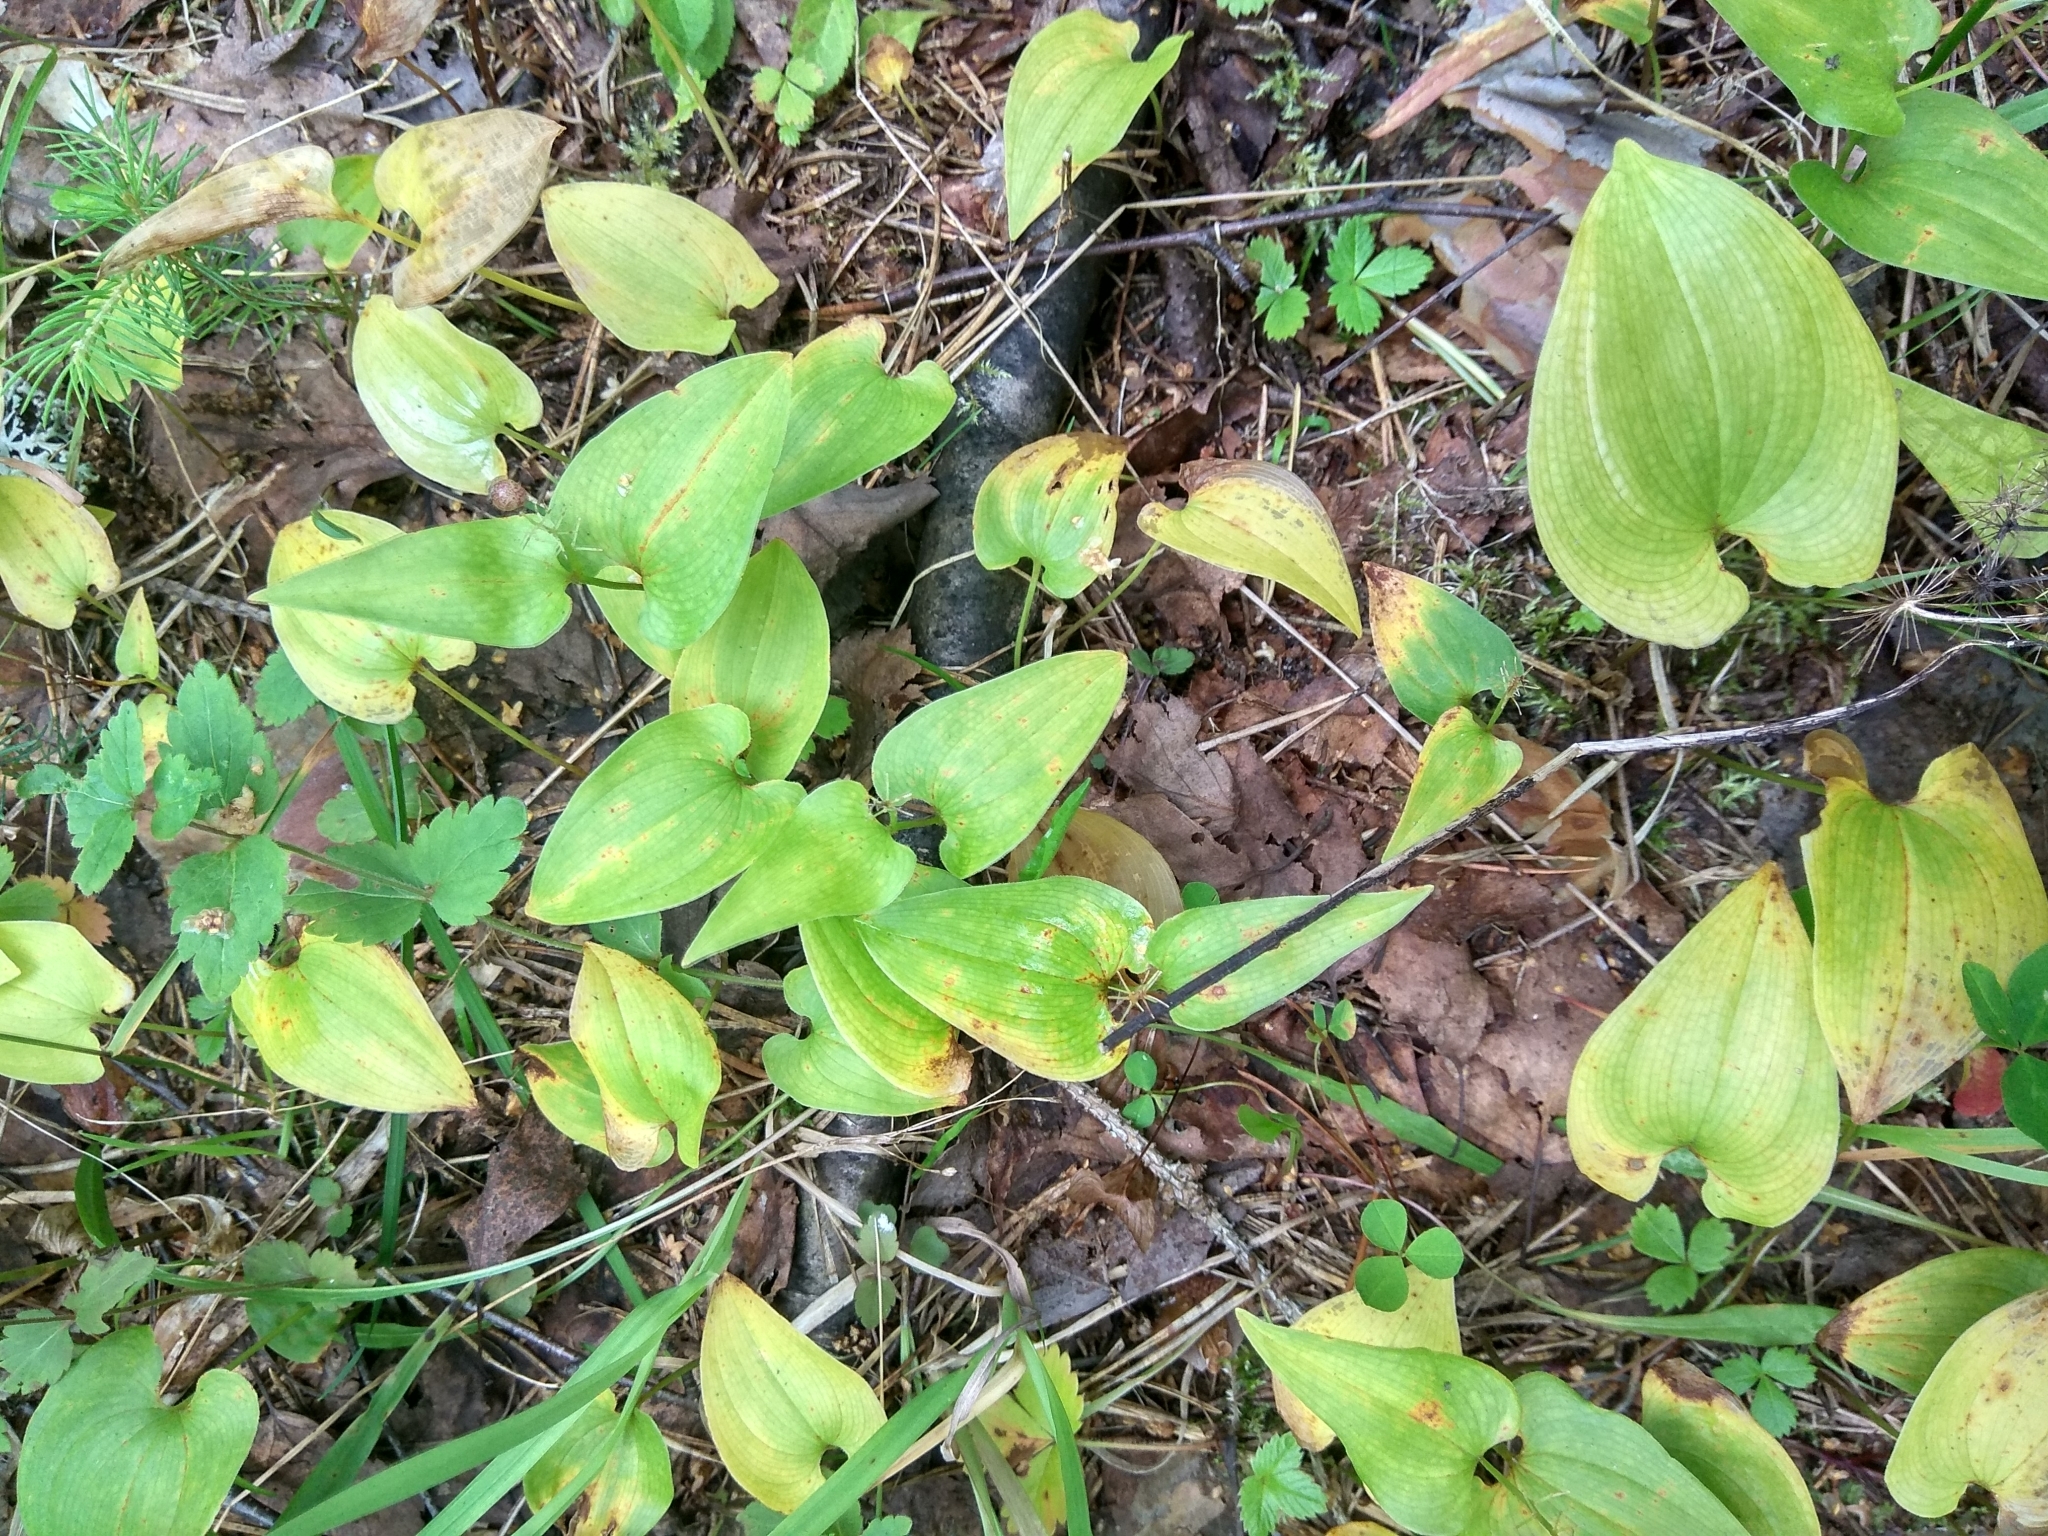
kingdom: Plantae
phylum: Tracheophyta
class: Liliopsida
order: Asparagales
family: Asparagaceae
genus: Maianthemum
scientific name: Maianthemum bifolium
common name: May lily
